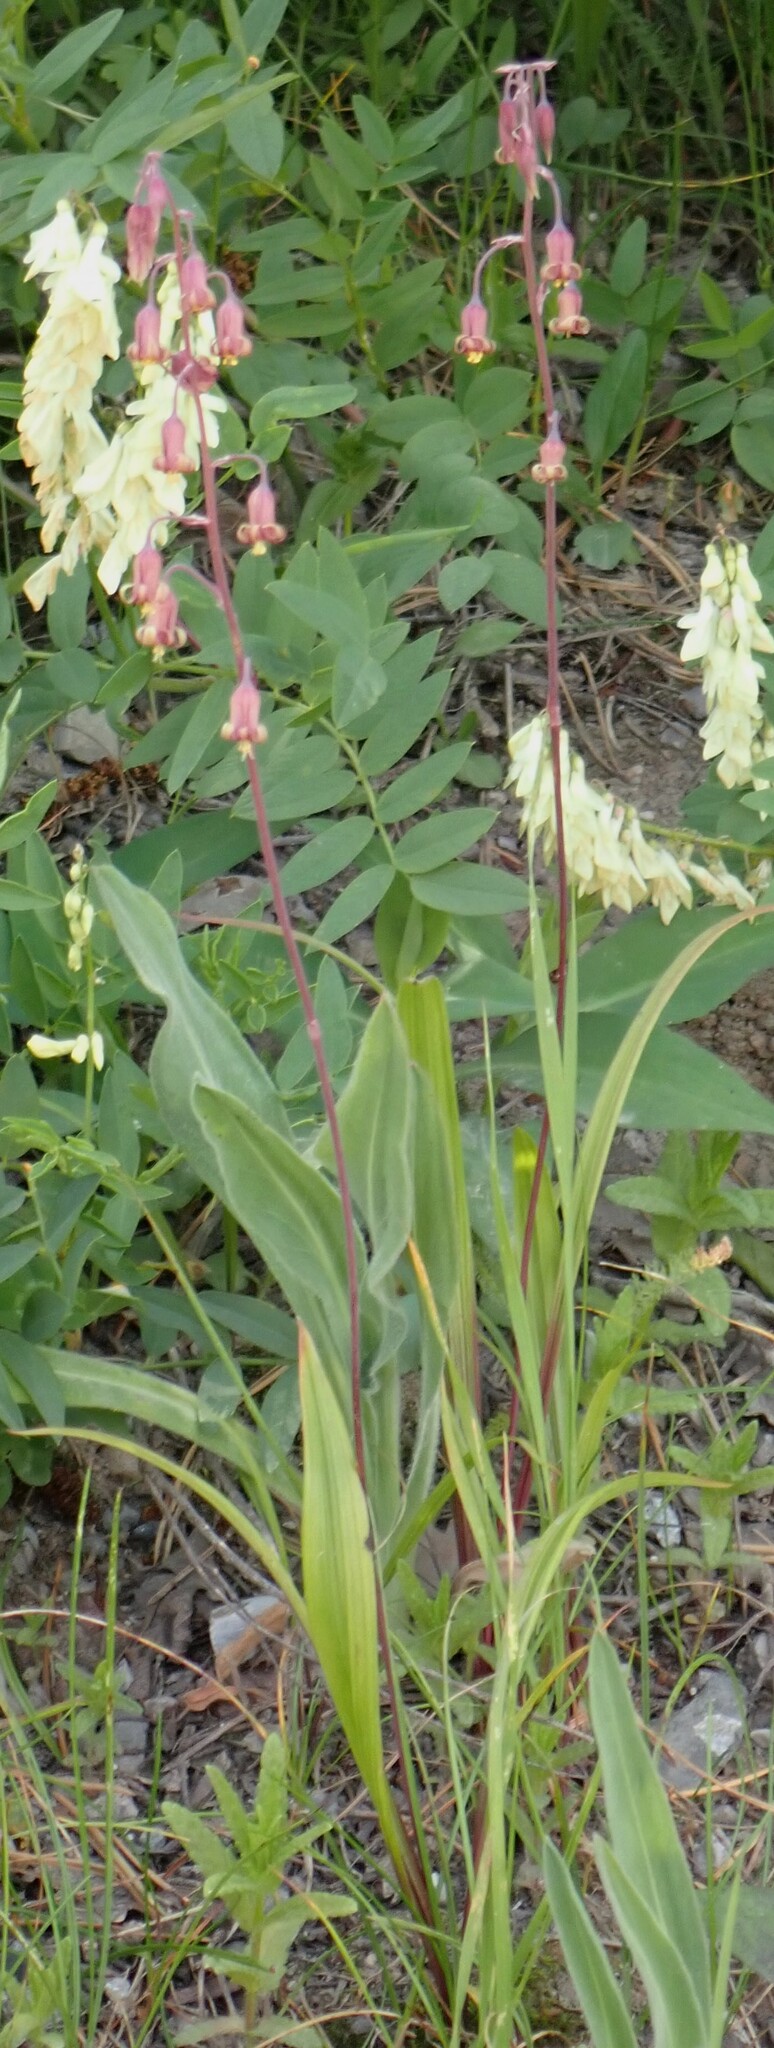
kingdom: Plantae
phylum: Tracheophyta
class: Liliopsida
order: Liliales
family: Melanthiaceae
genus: Anticlea
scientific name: Anticlea occidentalis
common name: Bronze-bells
